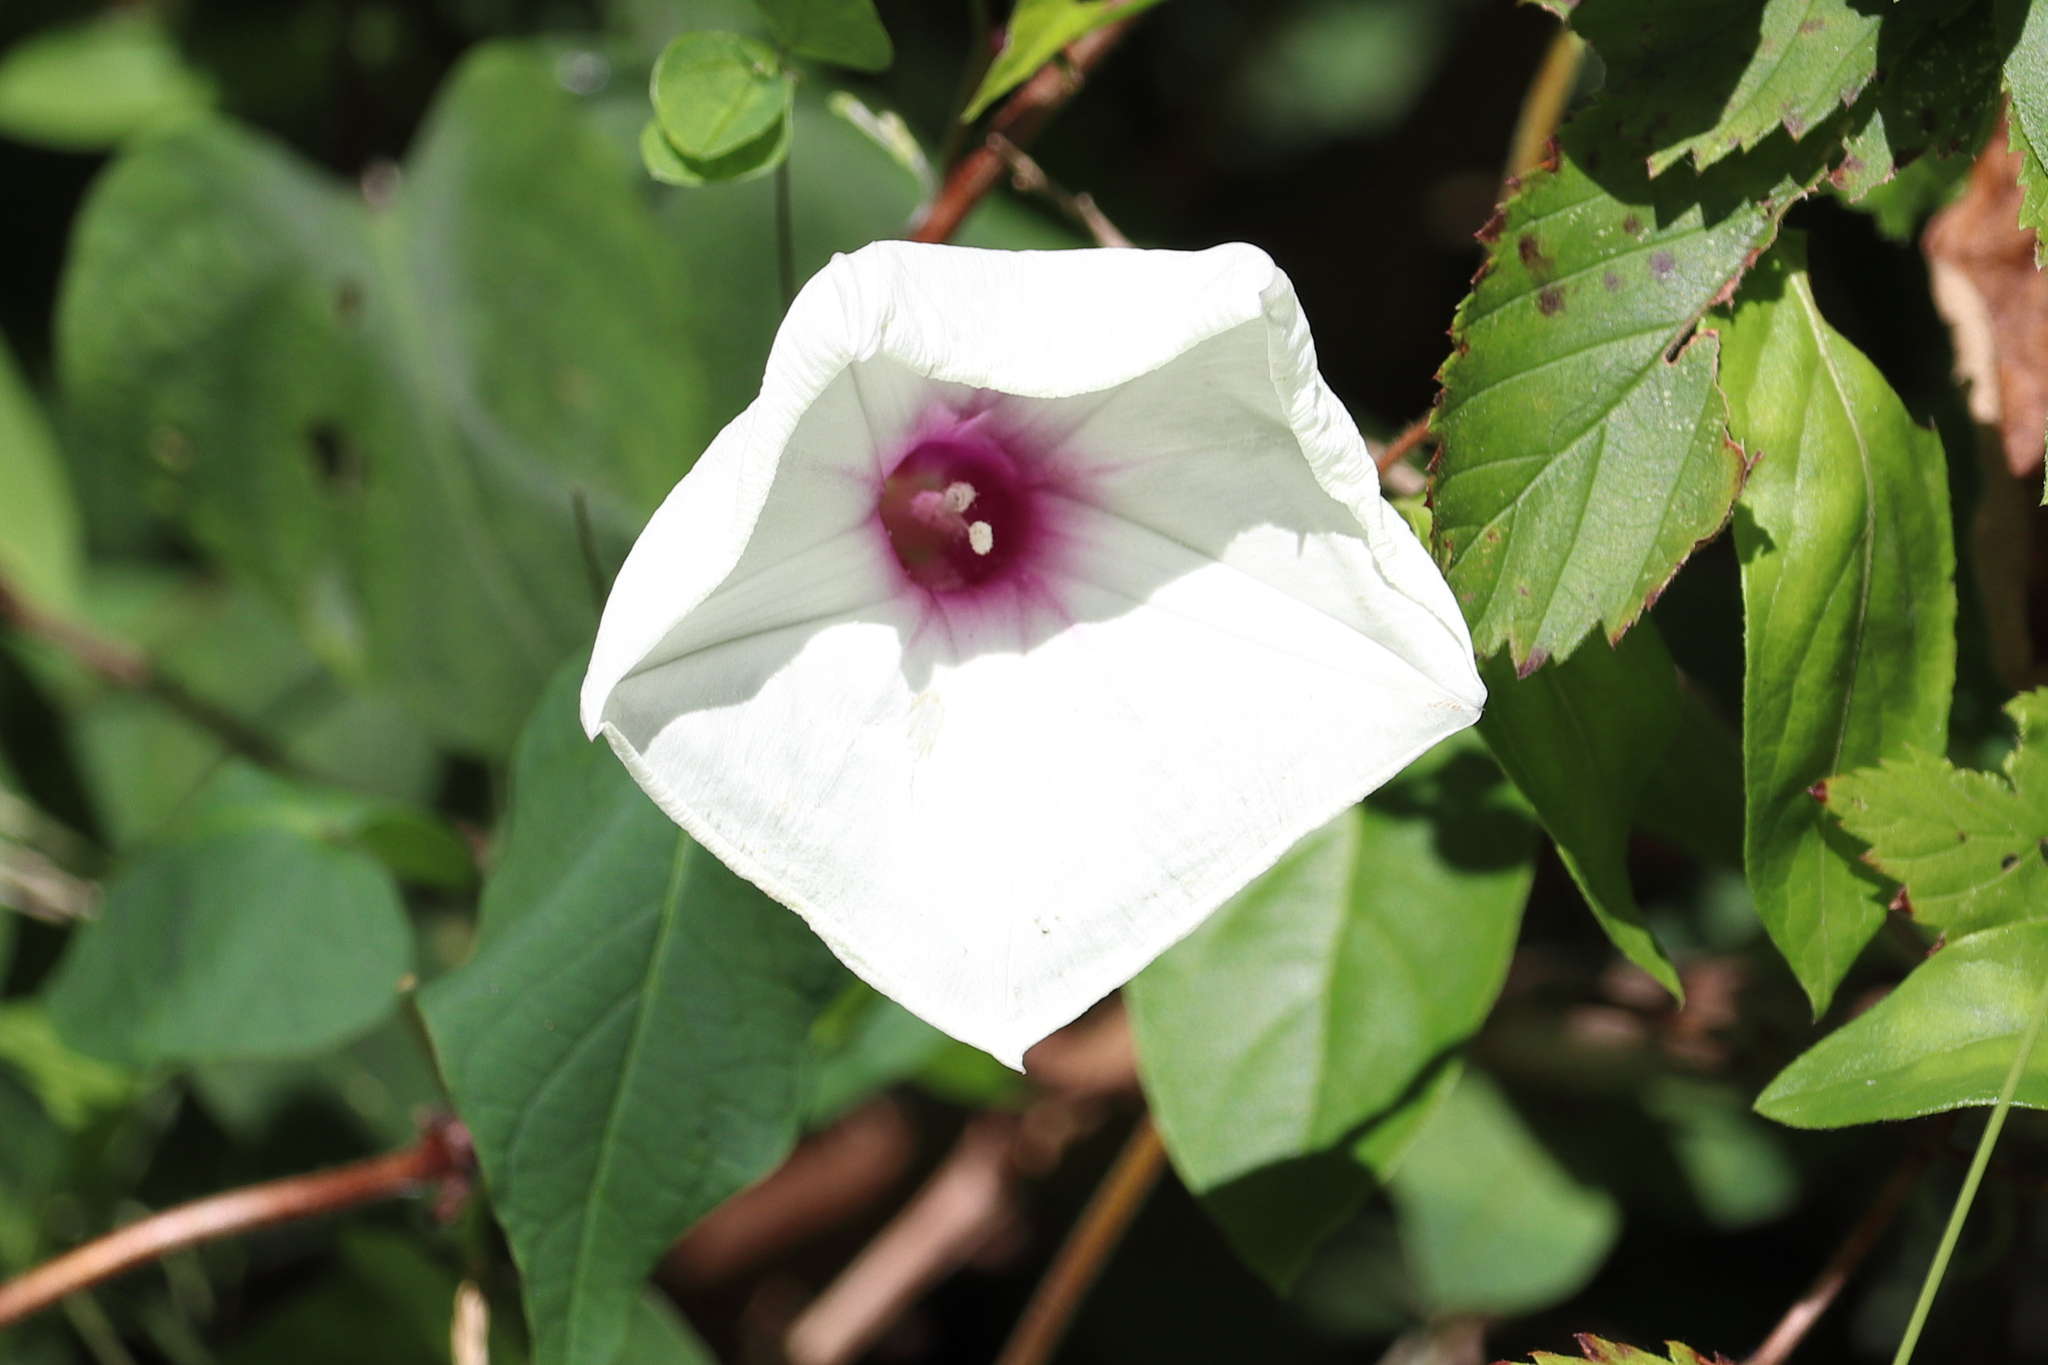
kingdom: Plantae
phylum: Tracheophyta
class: Magnoliopsida
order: Solanales
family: Convolvulaceae
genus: Ipomoea
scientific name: Ipomoea pandurata
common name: Man-of-the-earth
